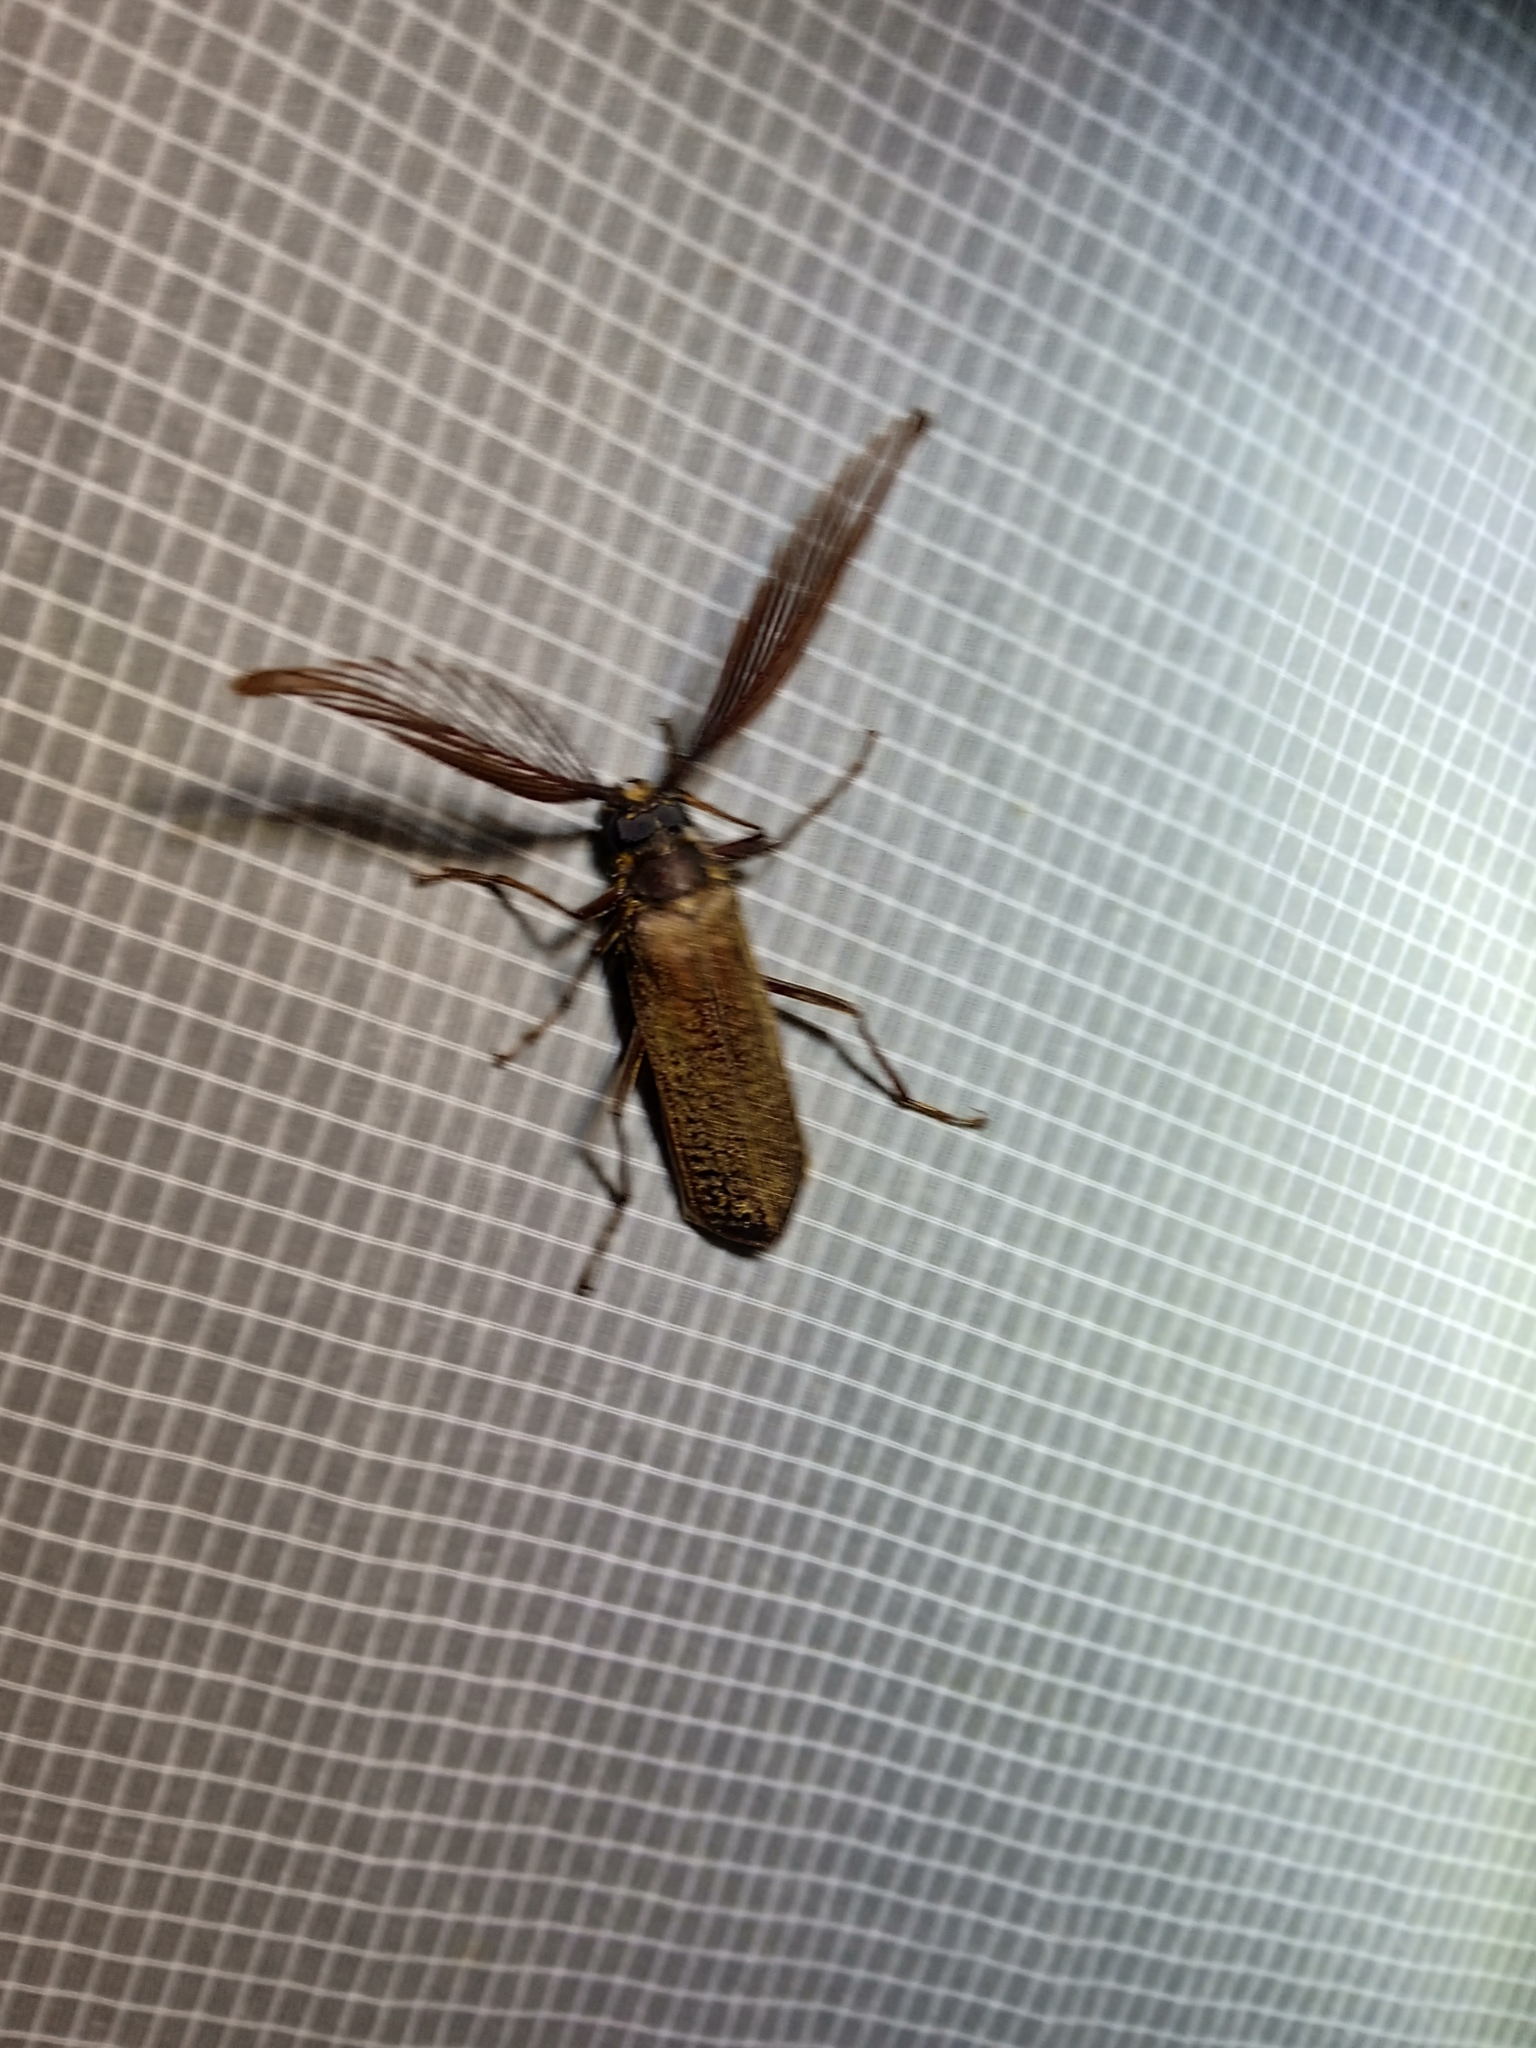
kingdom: Animalia
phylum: Arthropoda
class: Insecta
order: Coleoptera
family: Cerambycidae
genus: Sarifer
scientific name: Sarifer seabrai
